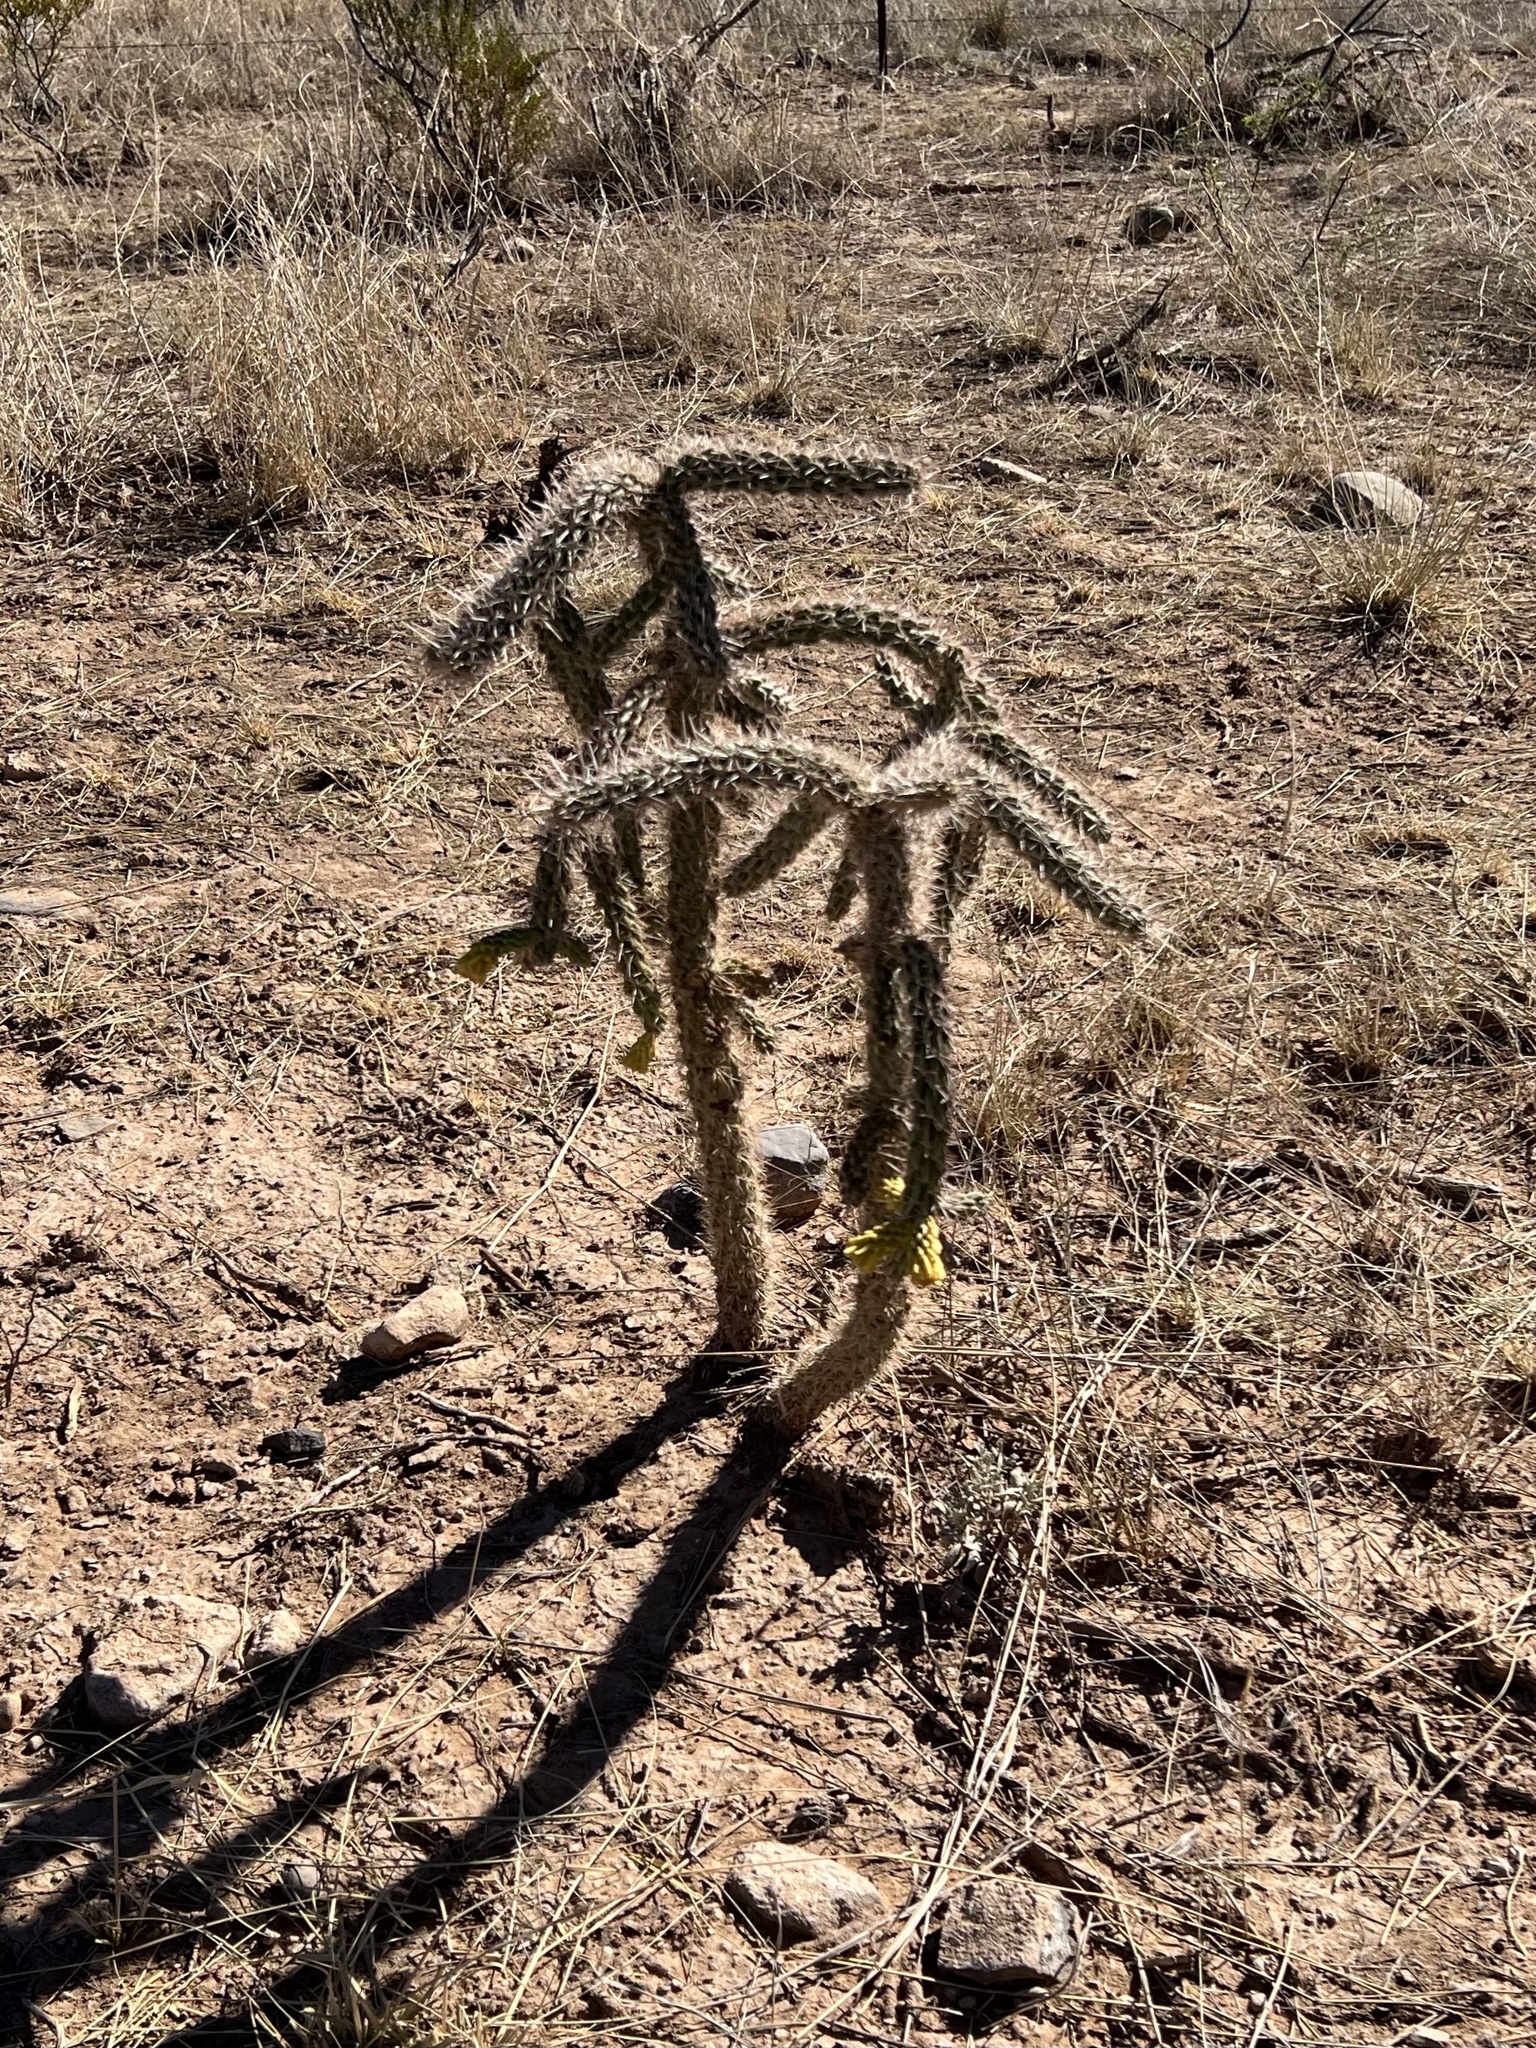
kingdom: Plantae
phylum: Tracheophyta
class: Magnoliopsida
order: Caryophyllales
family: Cactaceae
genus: Cylindropuntia
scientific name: Cylindropuntia imbricata
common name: Candelabrum cactus
